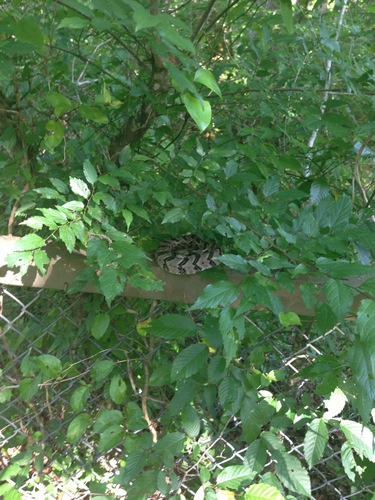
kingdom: Animalia
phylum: Chordata
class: Squamata
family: Viperidae
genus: Crotalus
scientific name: Crotalus horridus
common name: Timber rattlesnake
